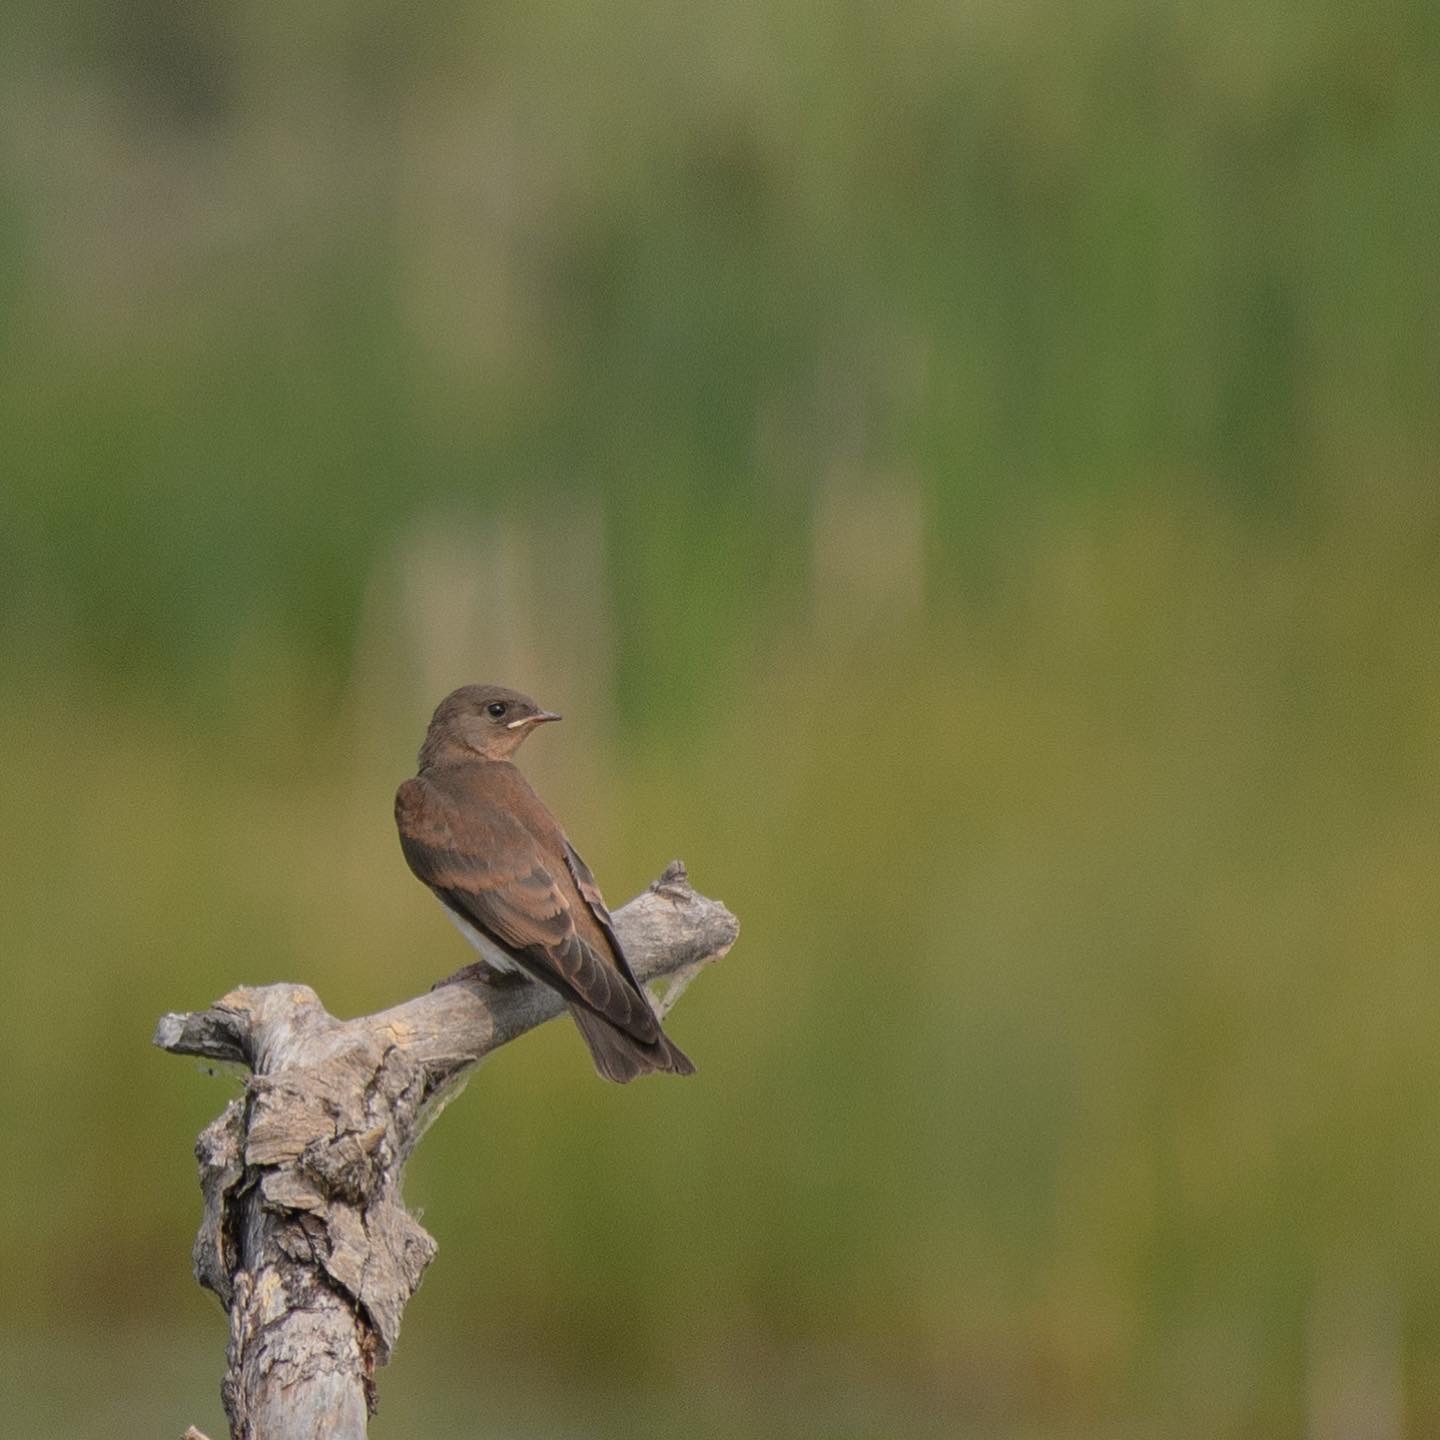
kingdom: Animalia
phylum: Chordata
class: Aves
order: Passeriformes
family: Hirundinidae
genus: Stelgidopteryx
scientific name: Stelgidopteryx serripennis
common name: Northern rough-winged swallow
